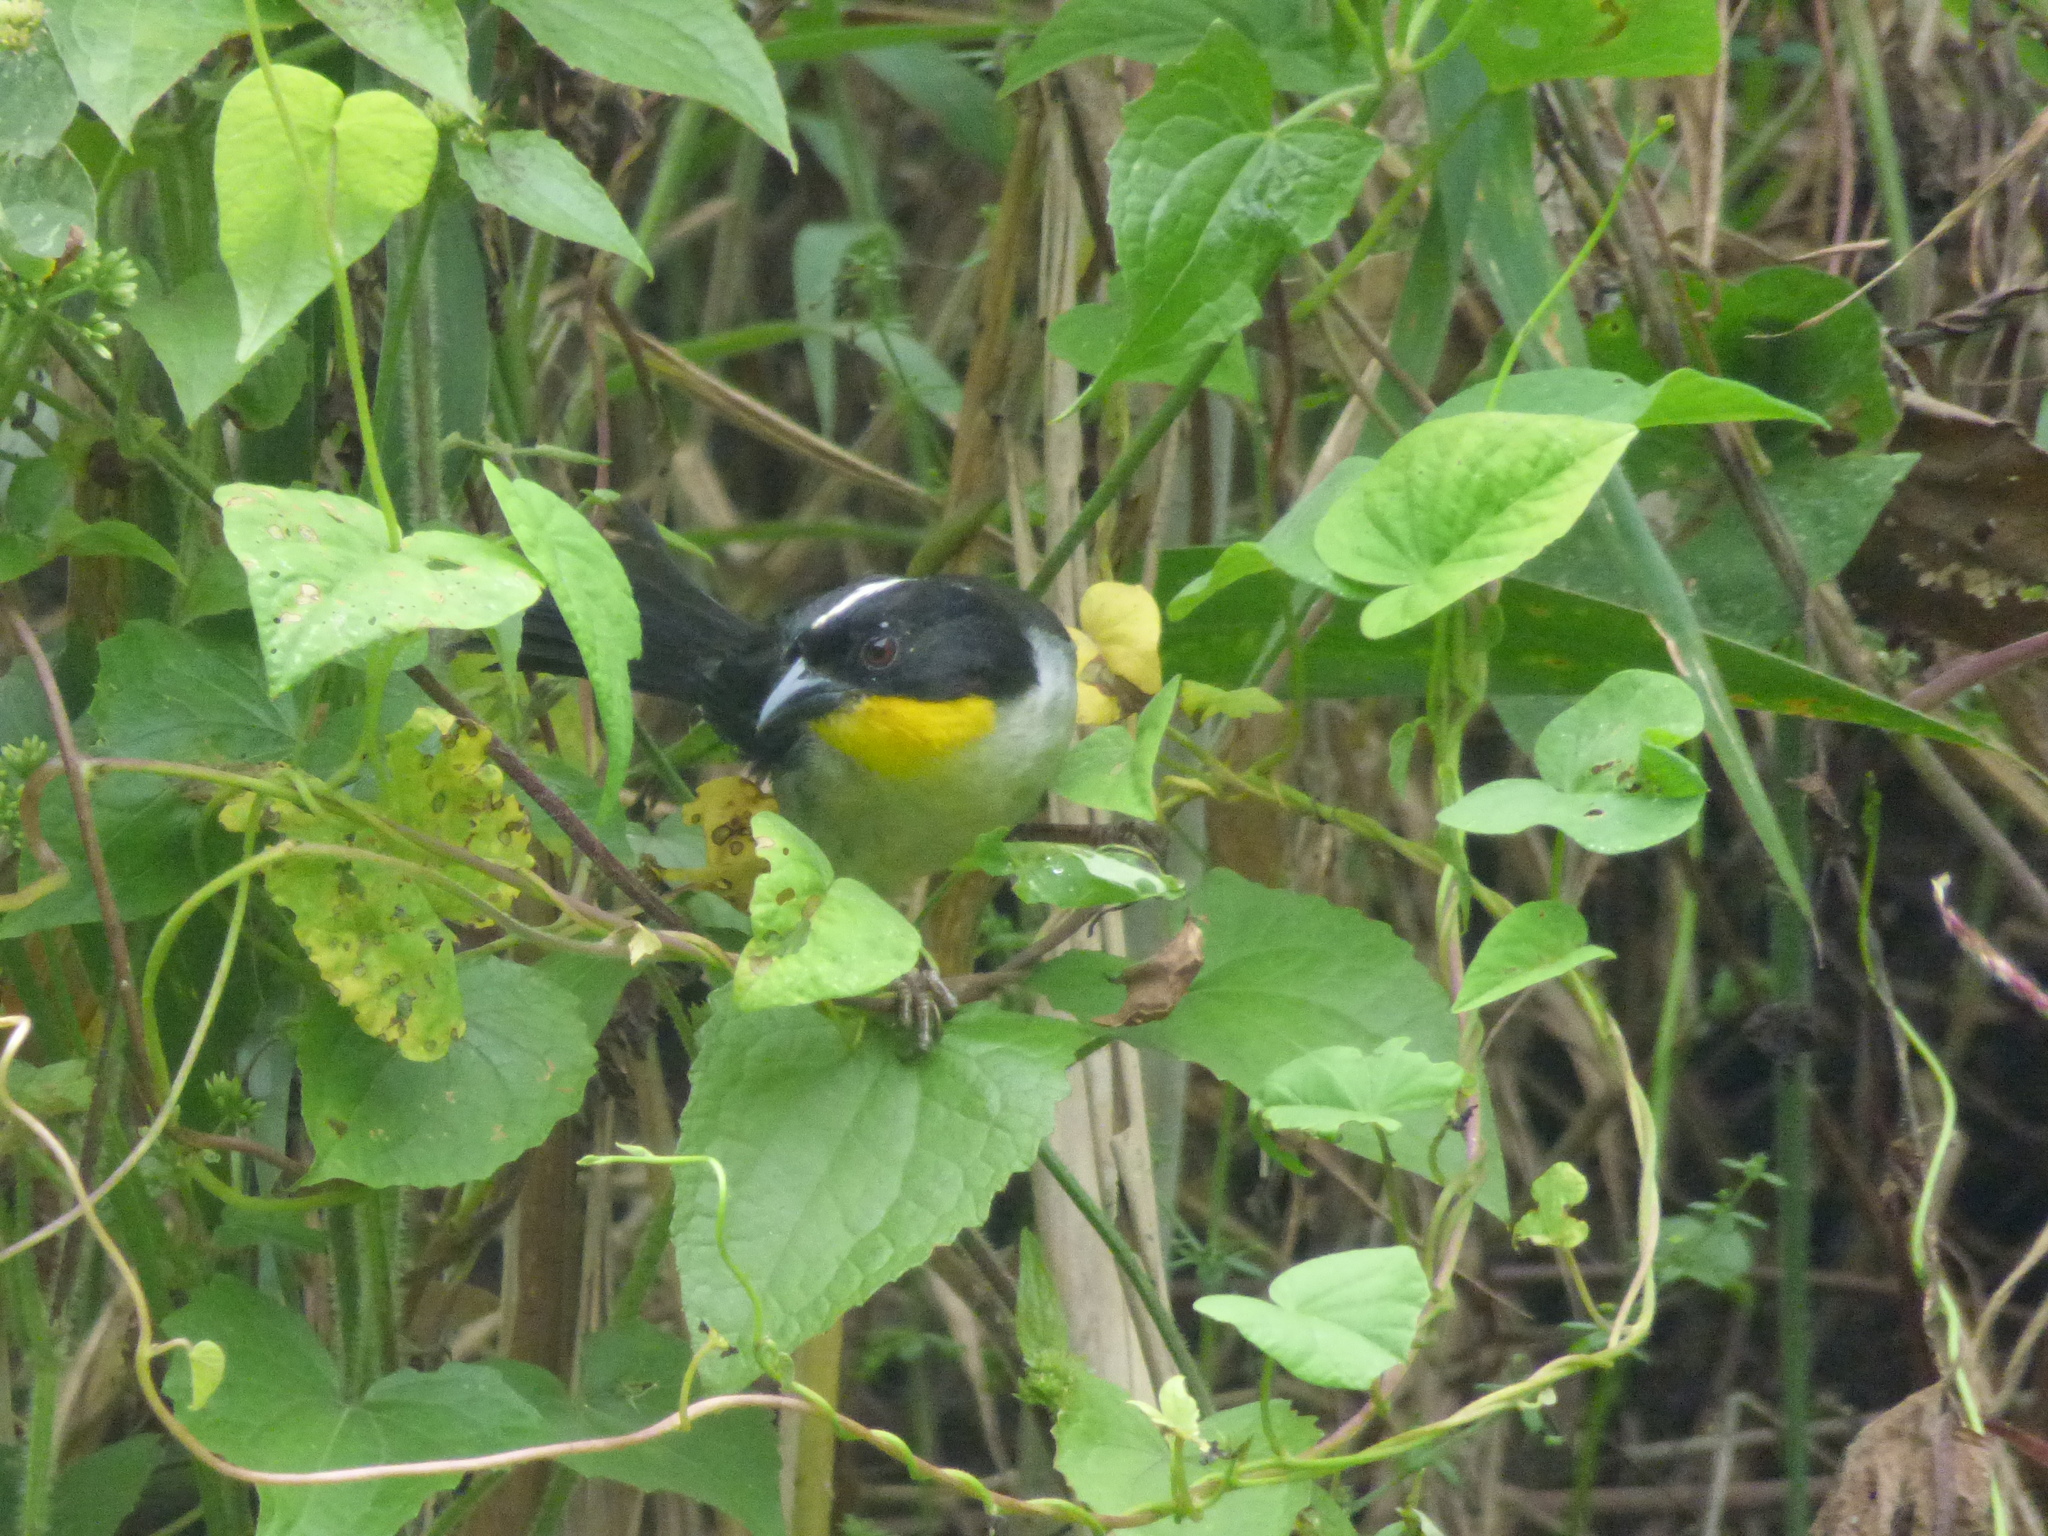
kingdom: Animalia
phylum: Chordata
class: Aves
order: Passeriformes
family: Passerellidae
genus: Atlapetes
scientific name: Atlapetes albinucha
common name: White-naped brush-finch
